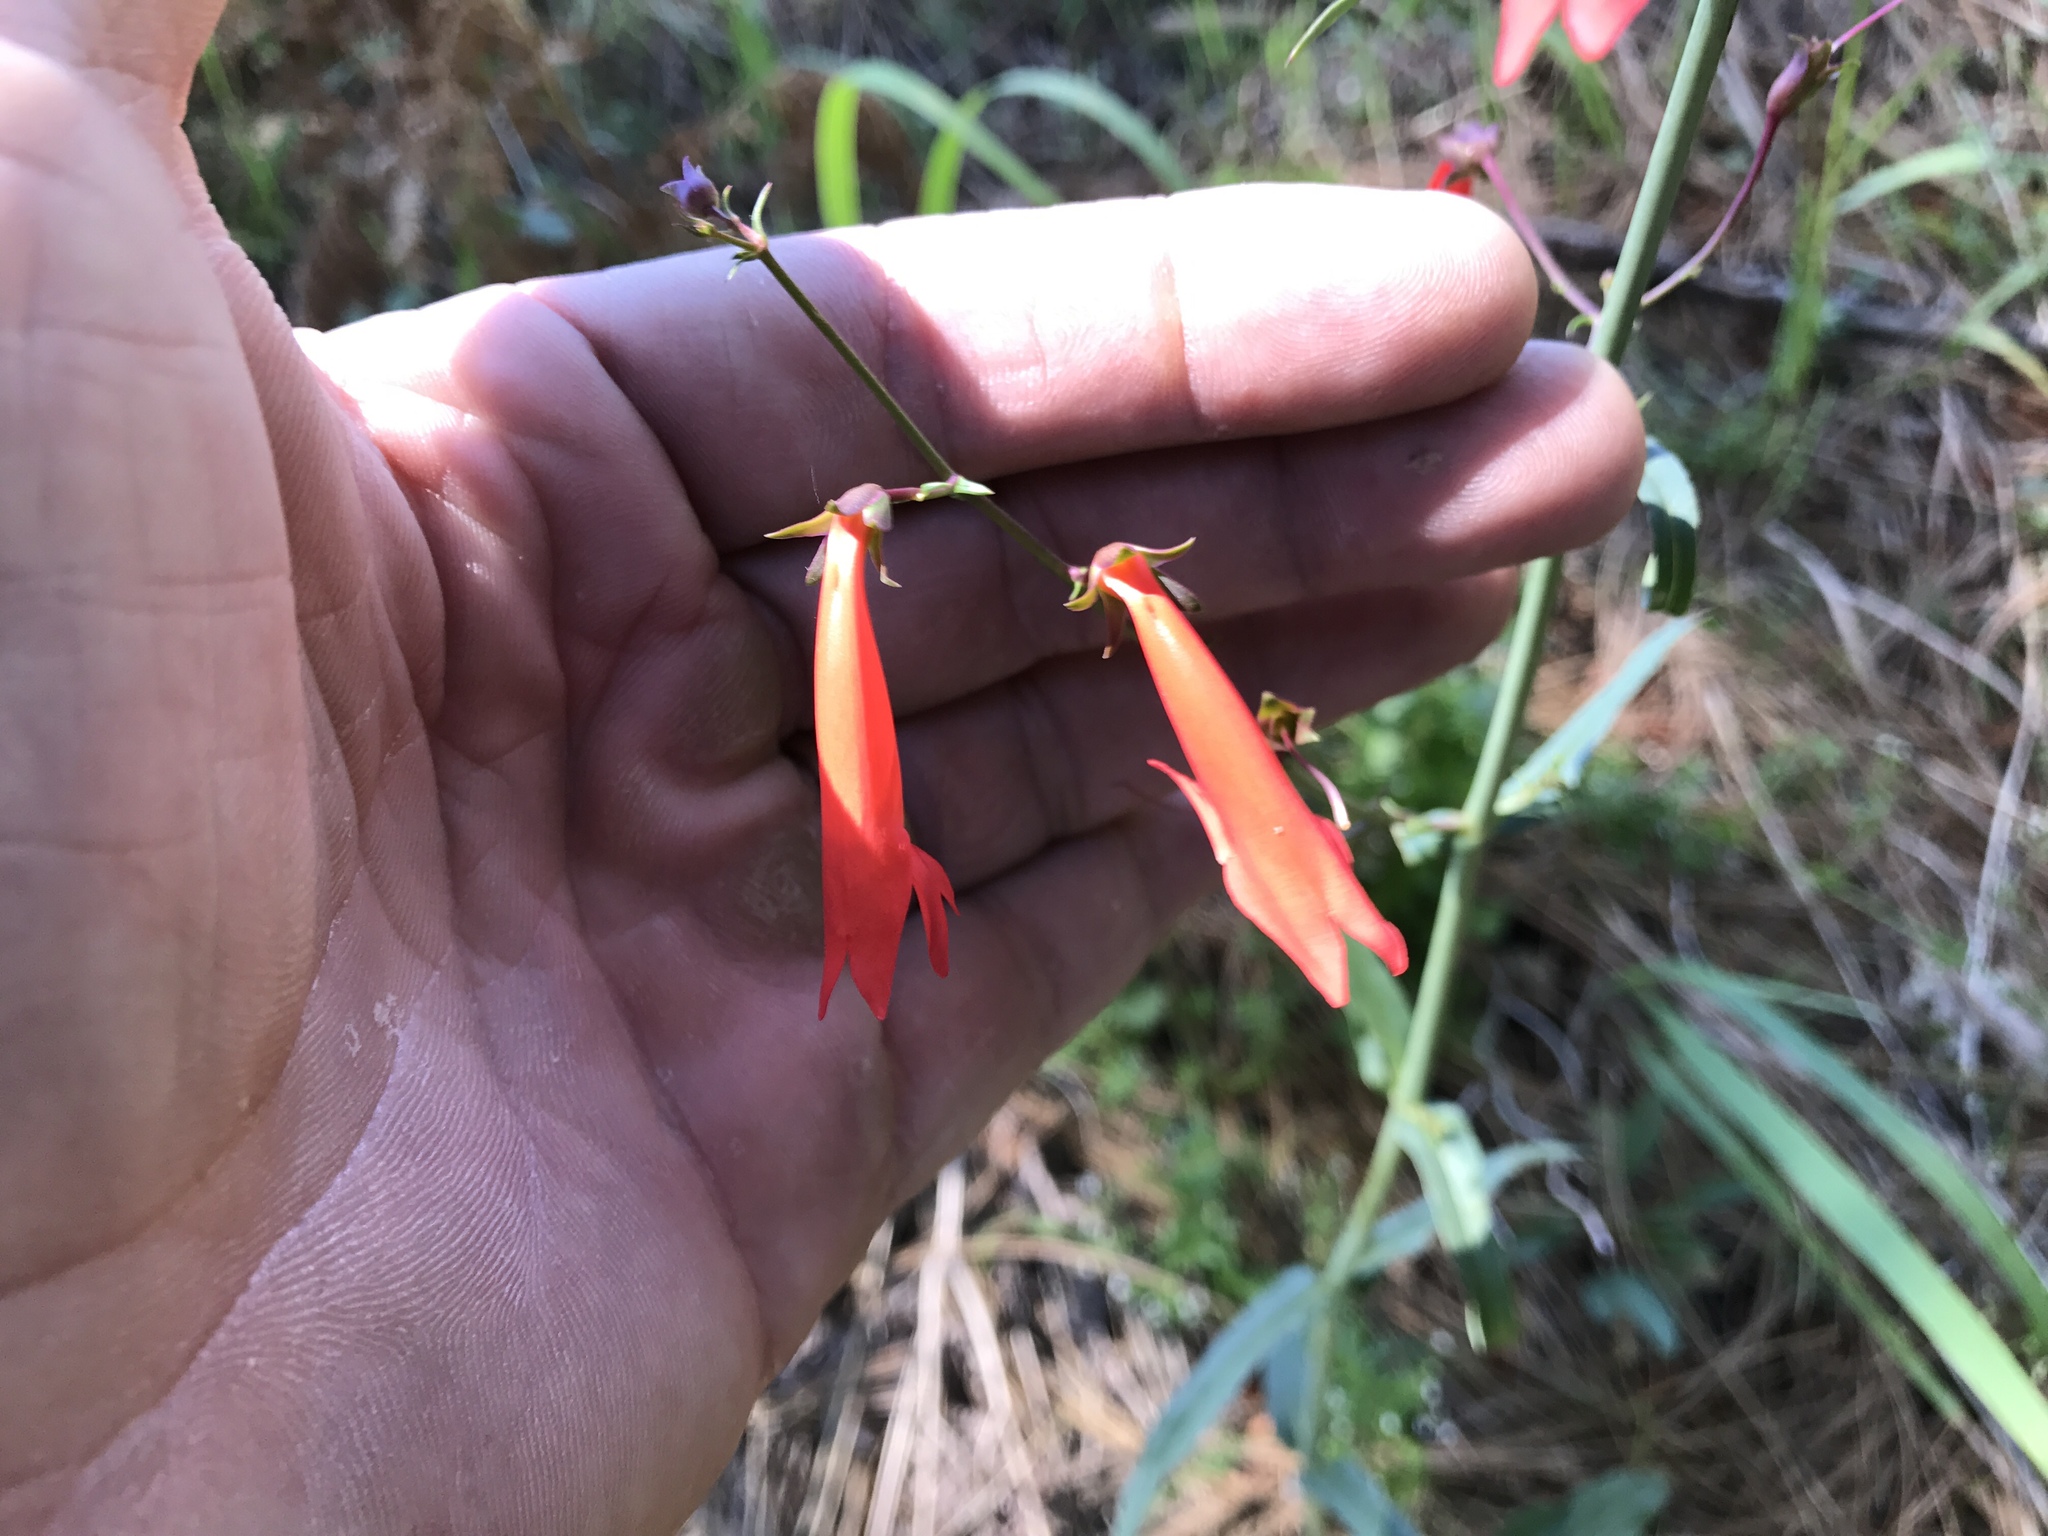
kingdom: Plantae
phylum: Tracheophyta
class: Magnoliopsida
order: Lamiales
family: Plantaginaceae
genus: Penstemon
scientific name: Penstemon barbatus
